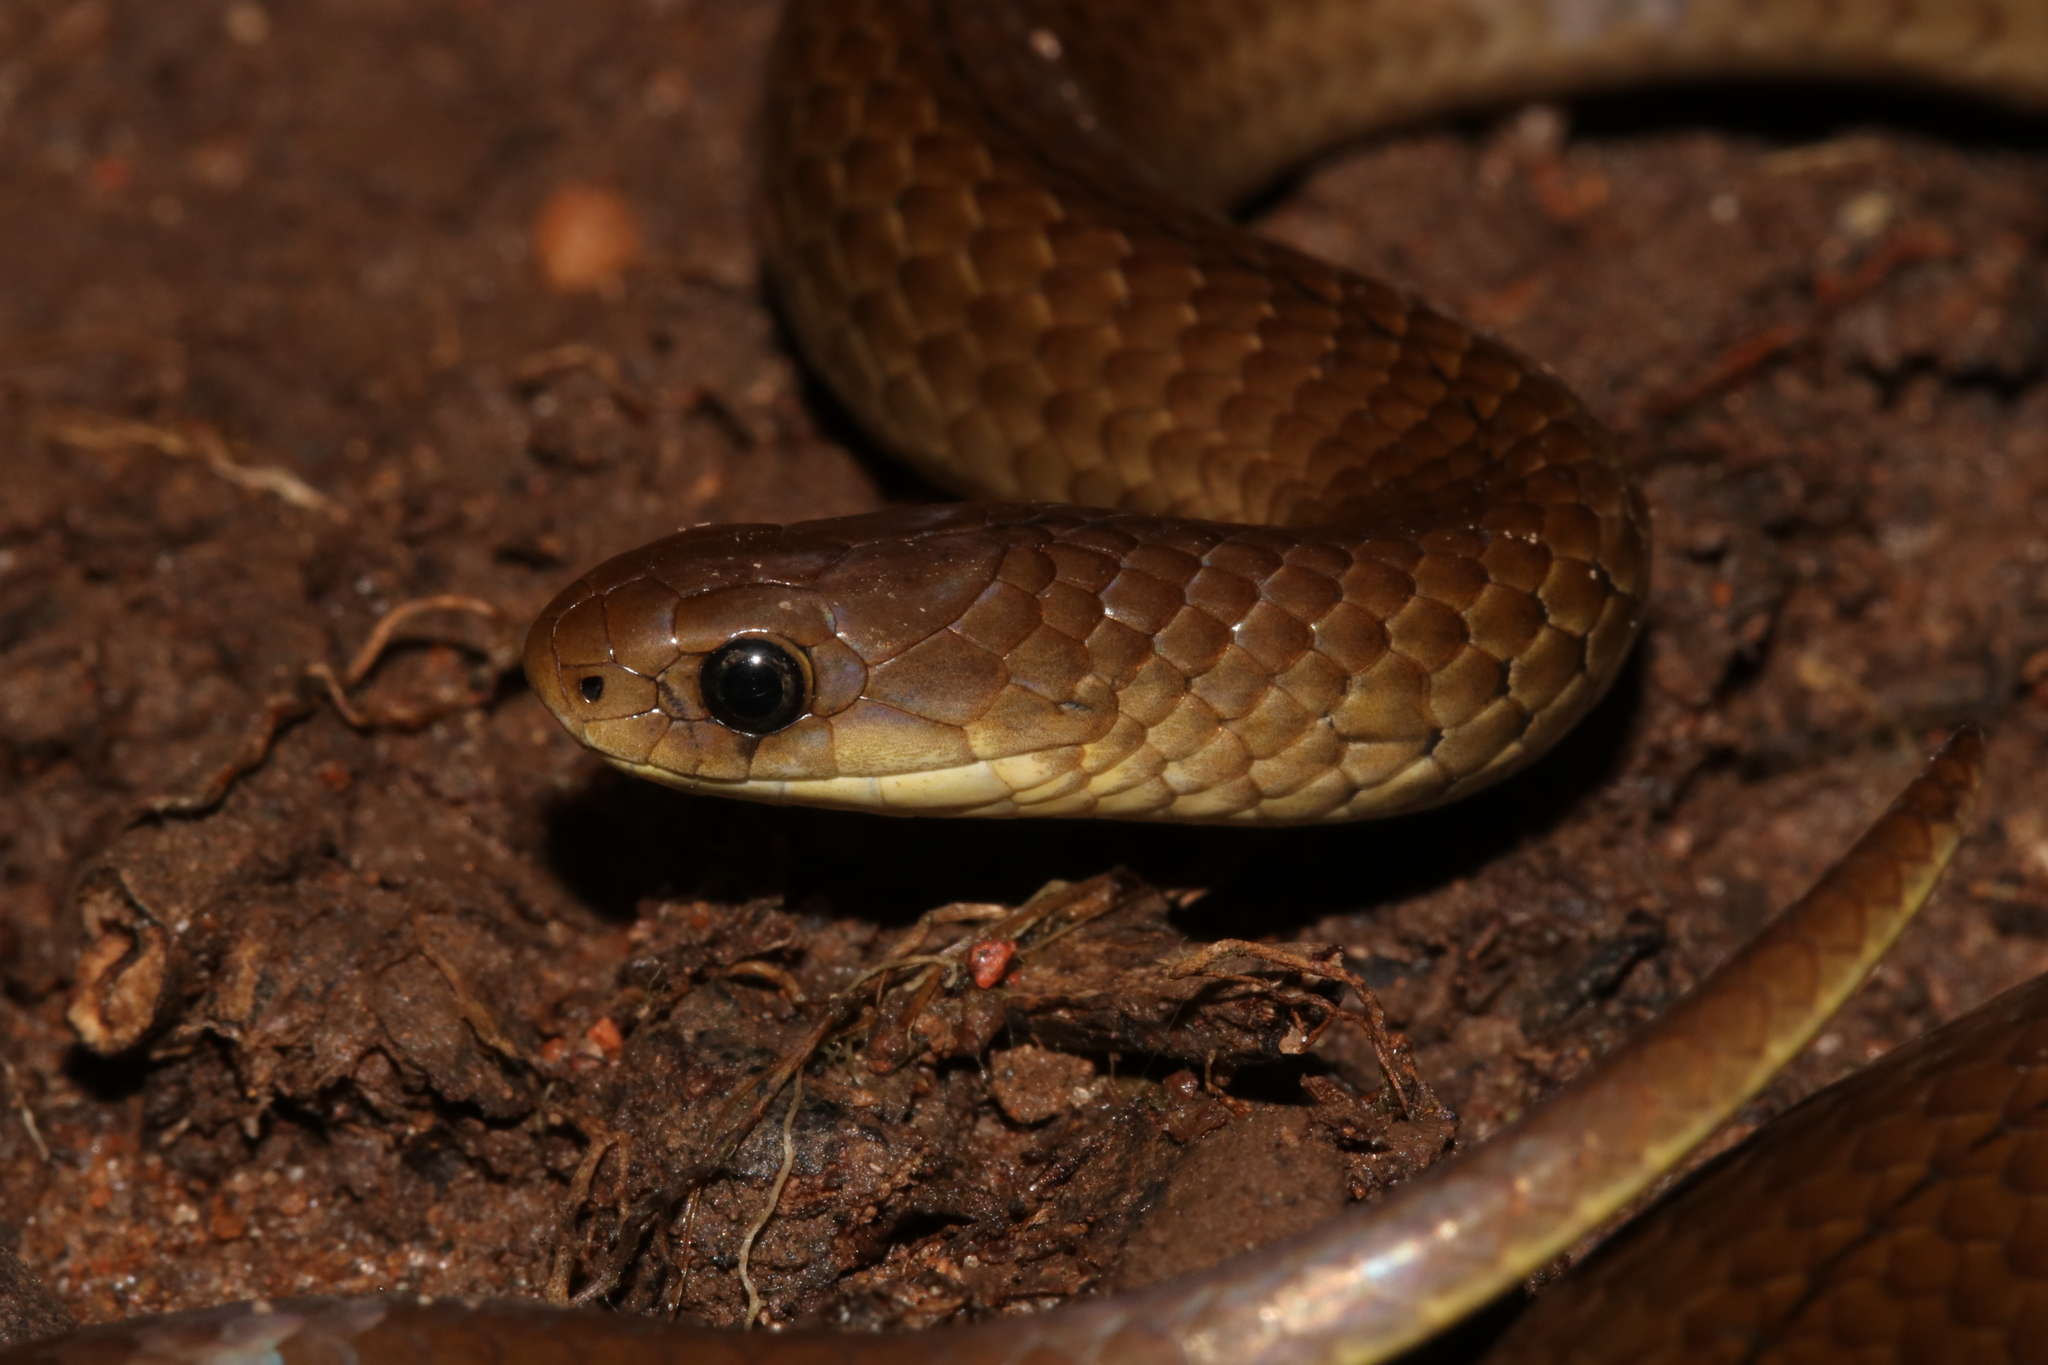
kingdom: Animalia
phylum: Chordata
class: Squamata
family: Pseudoxyrhophiidae
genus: Duberria
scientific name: Duberria shirana
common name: Shire slug eater
